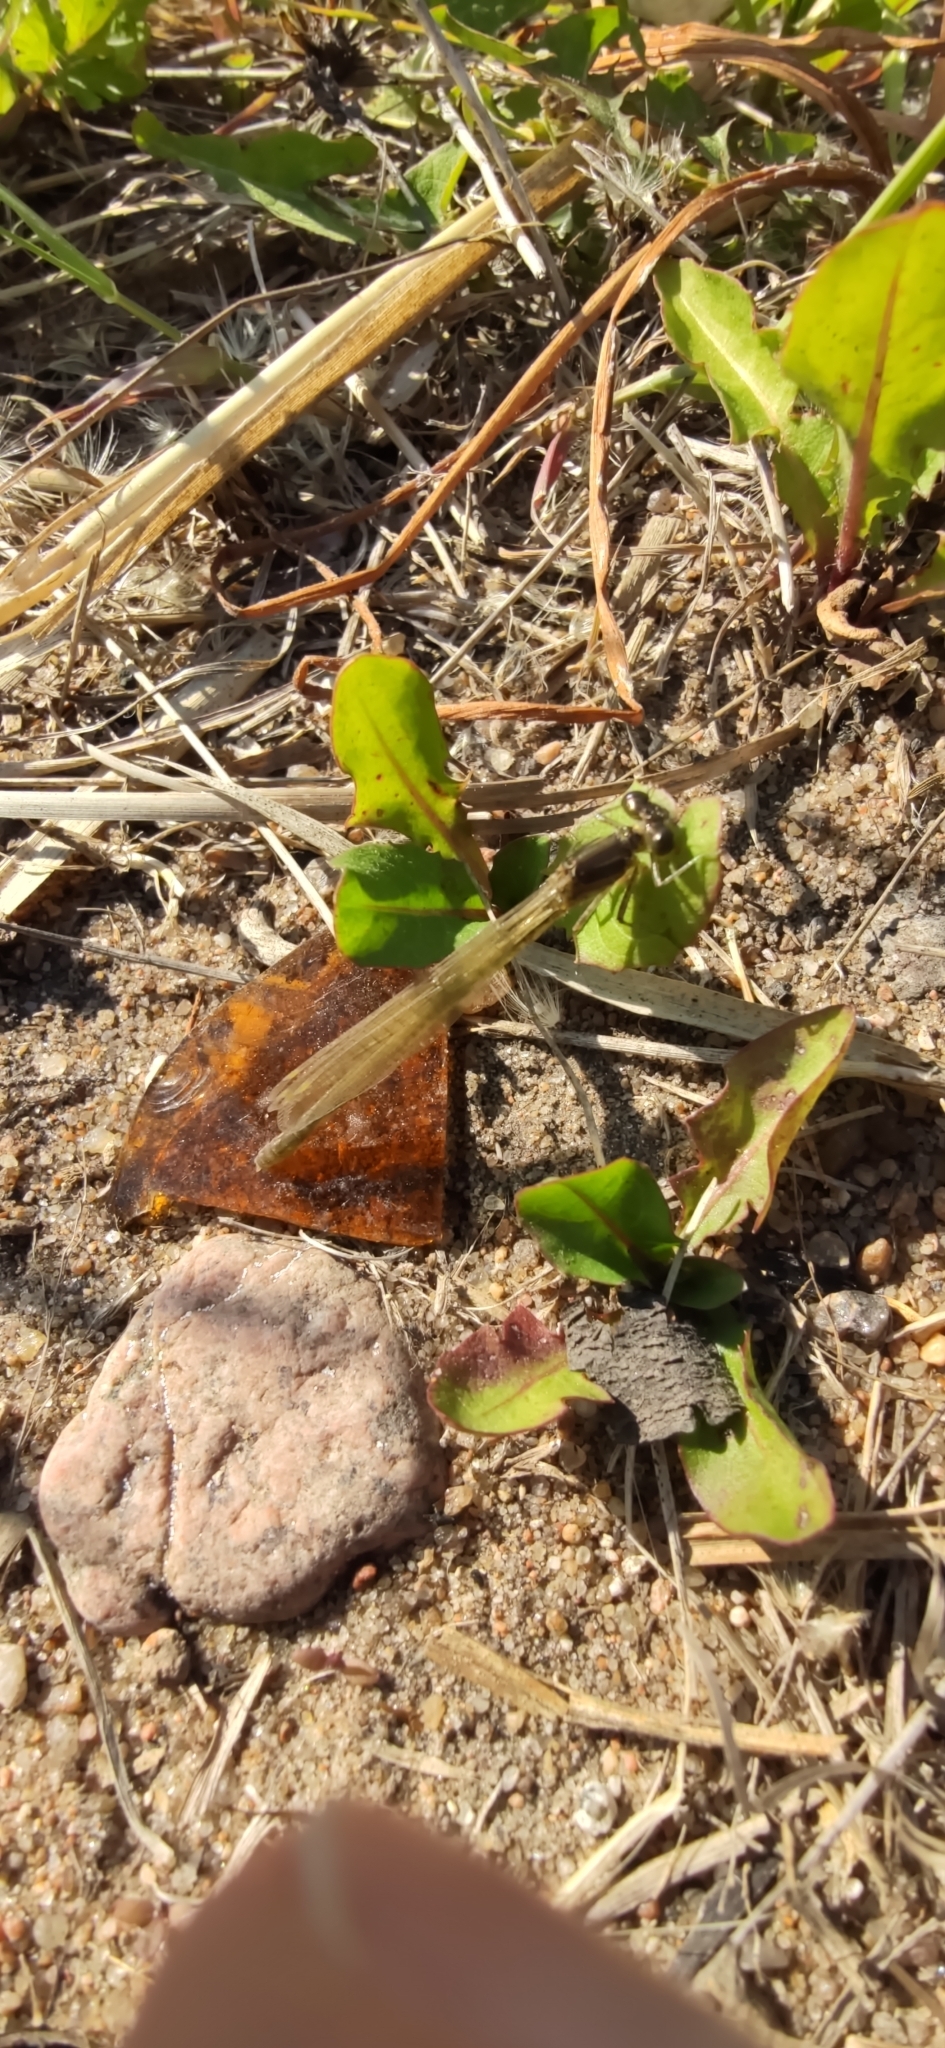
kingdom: Animalia
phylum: Arthropoda
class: Insecta
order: Odonata
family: Coenagrionidae
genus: Erythromma
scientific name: Erythromma najas
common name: Red-eyed damselfly
